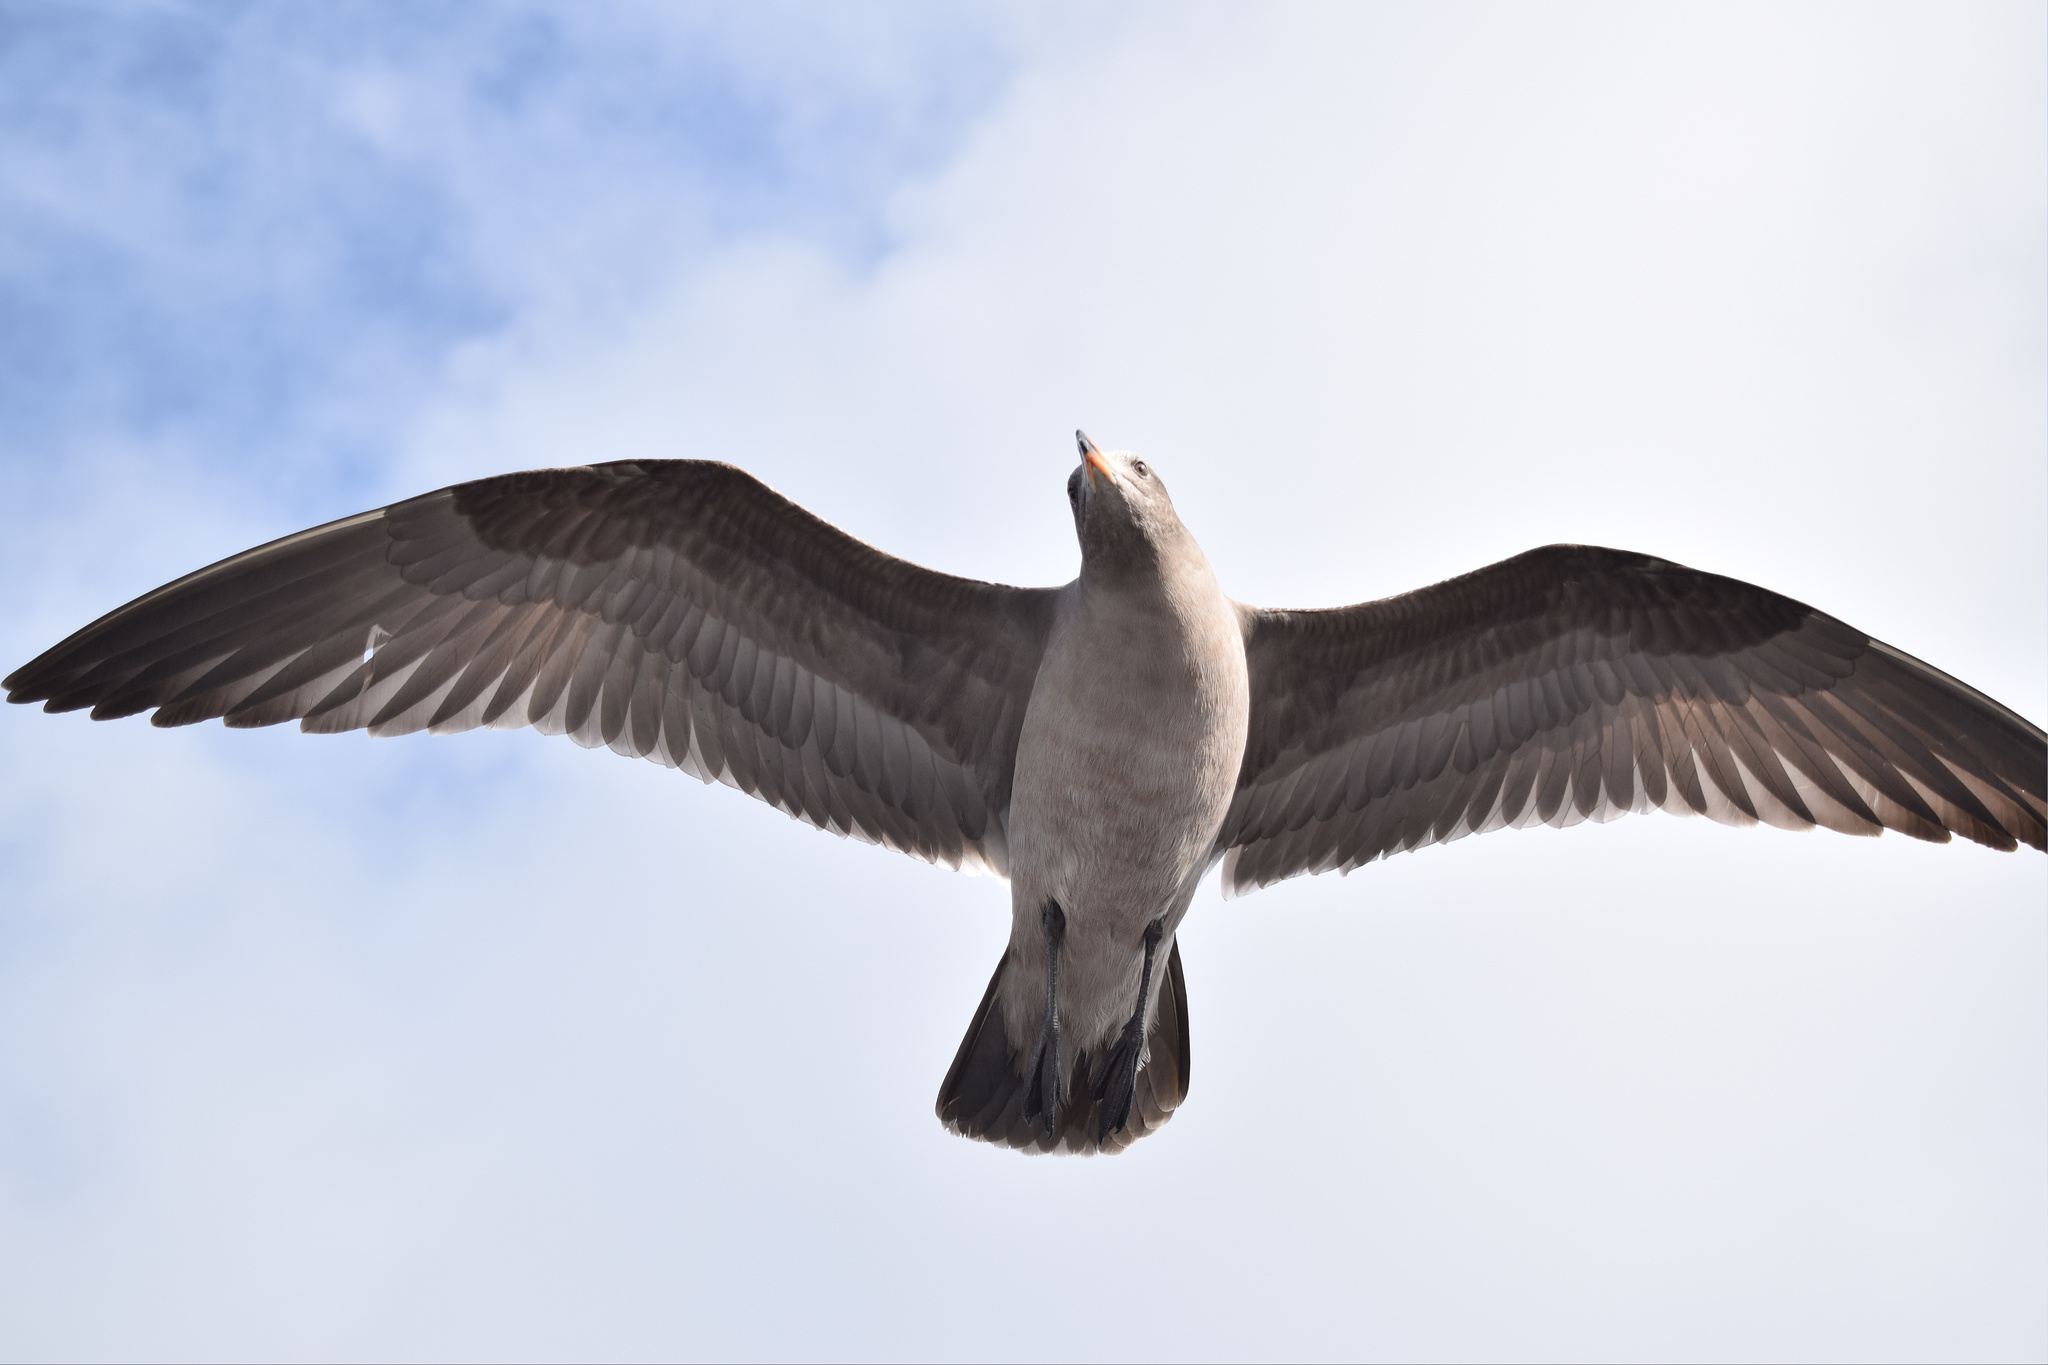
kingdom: Animalia
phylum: Chordata
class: Aves
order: Charadriiformes
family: Laridae
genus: Larus
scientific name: Larus heermanni
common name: Heermann's gull
